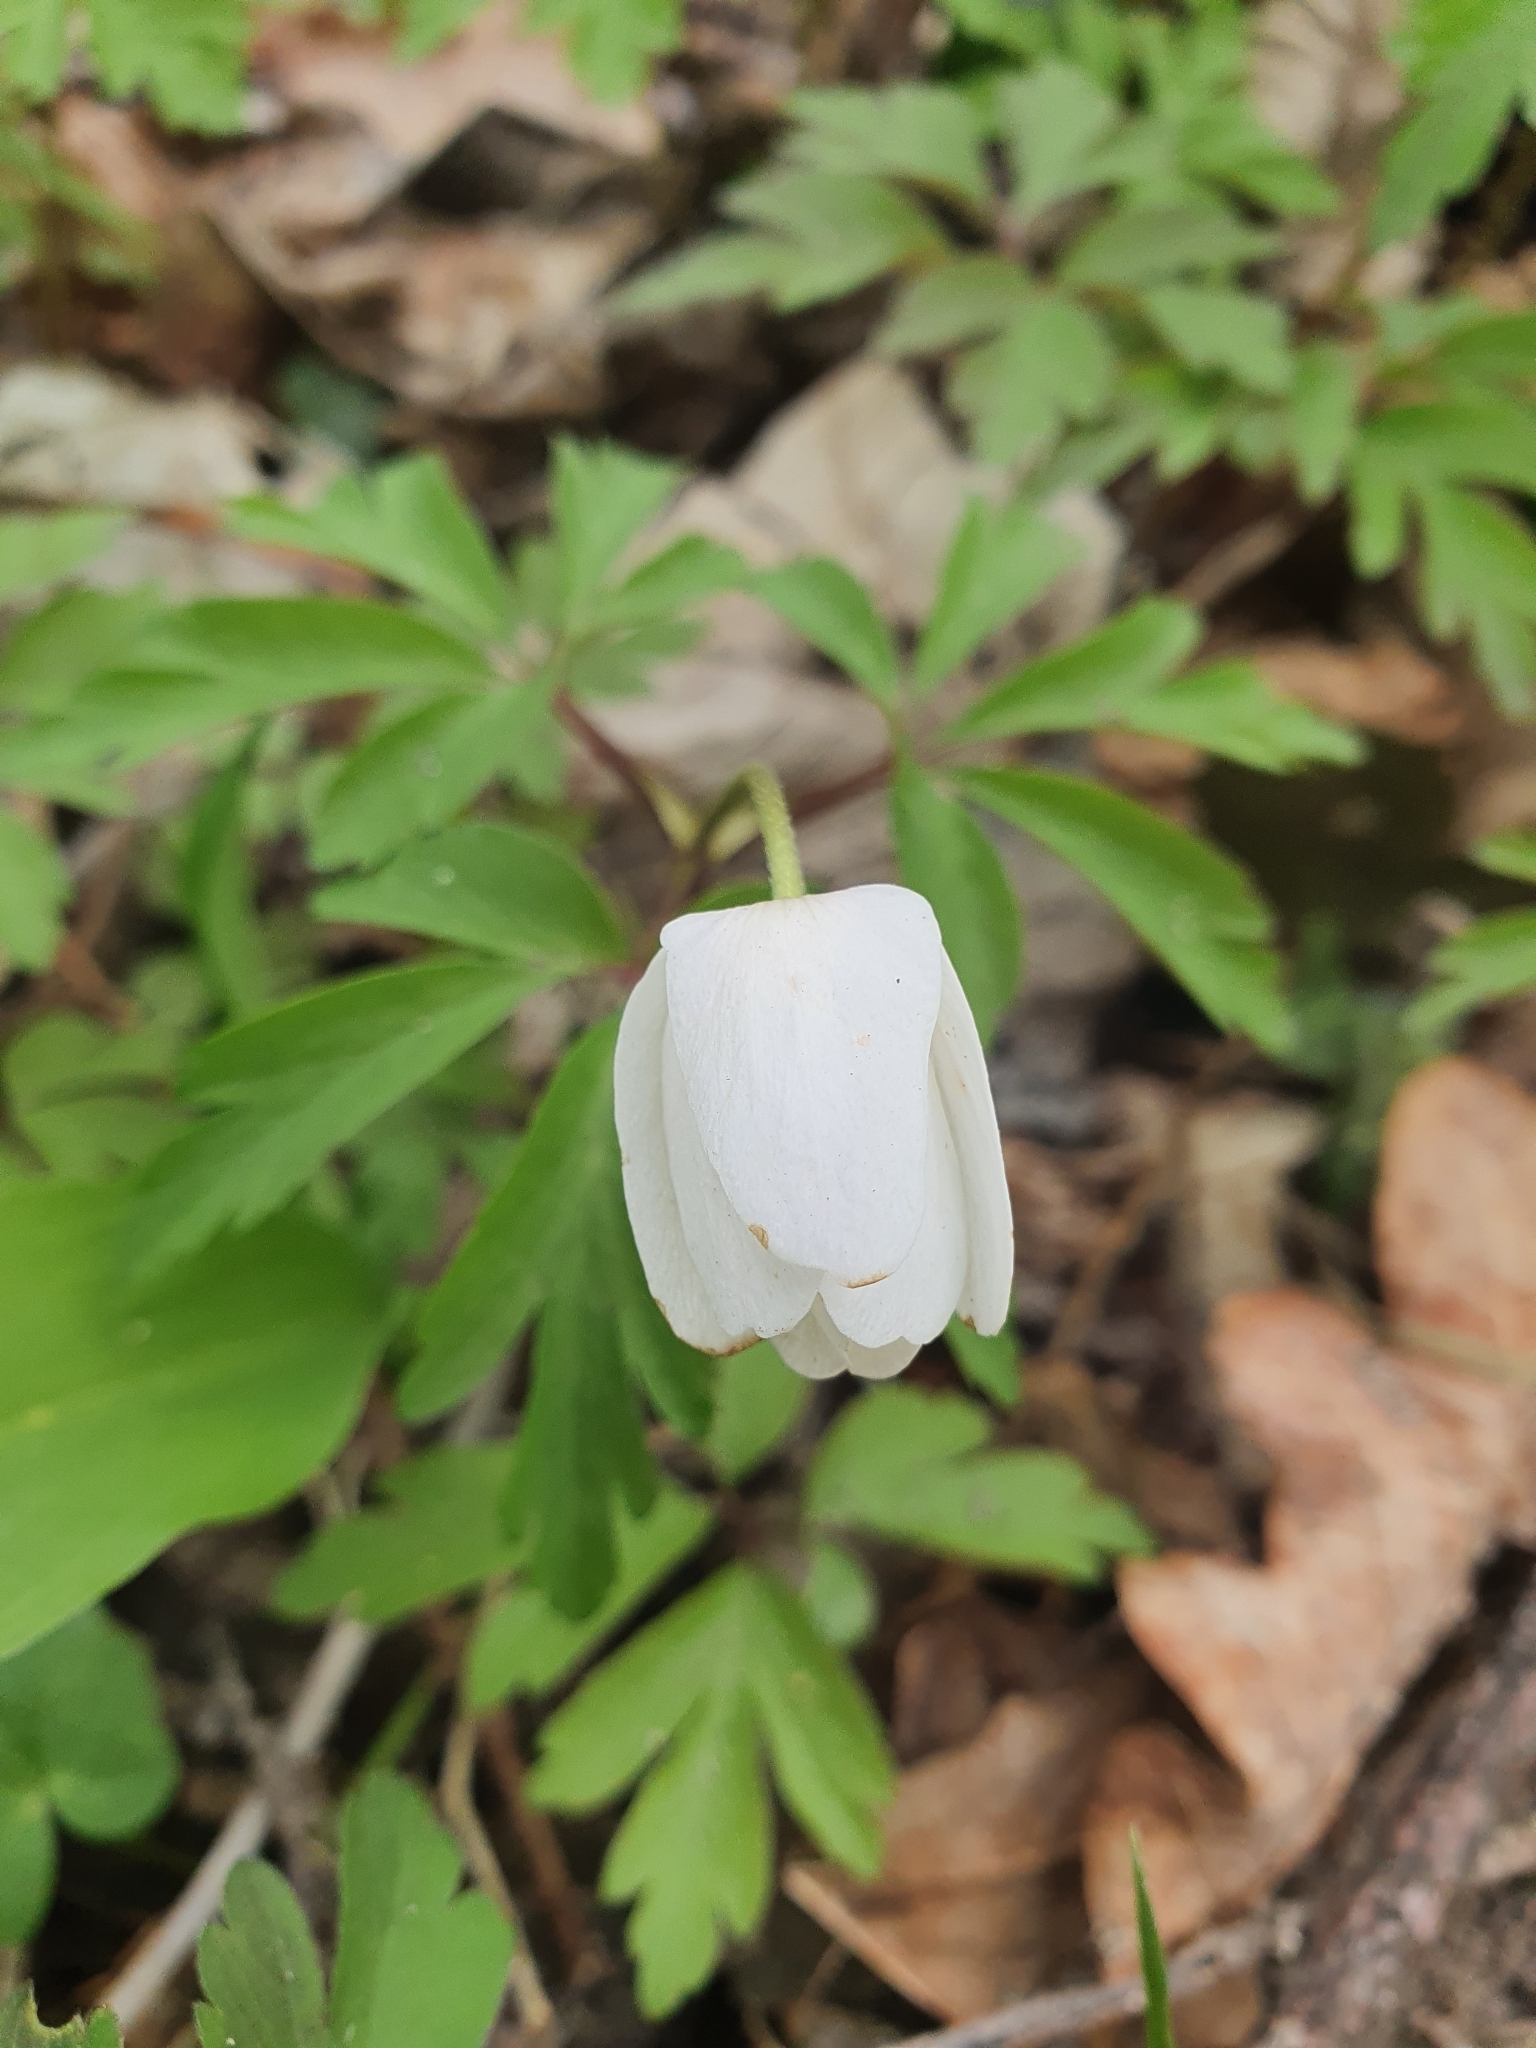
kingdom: Plantae
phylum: Tracheophyta
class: Magnoliopsida
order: Ranunculales
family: Ranunculaceae
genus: Anemone
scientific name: Anemone nemorosa
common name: Wood anemone
